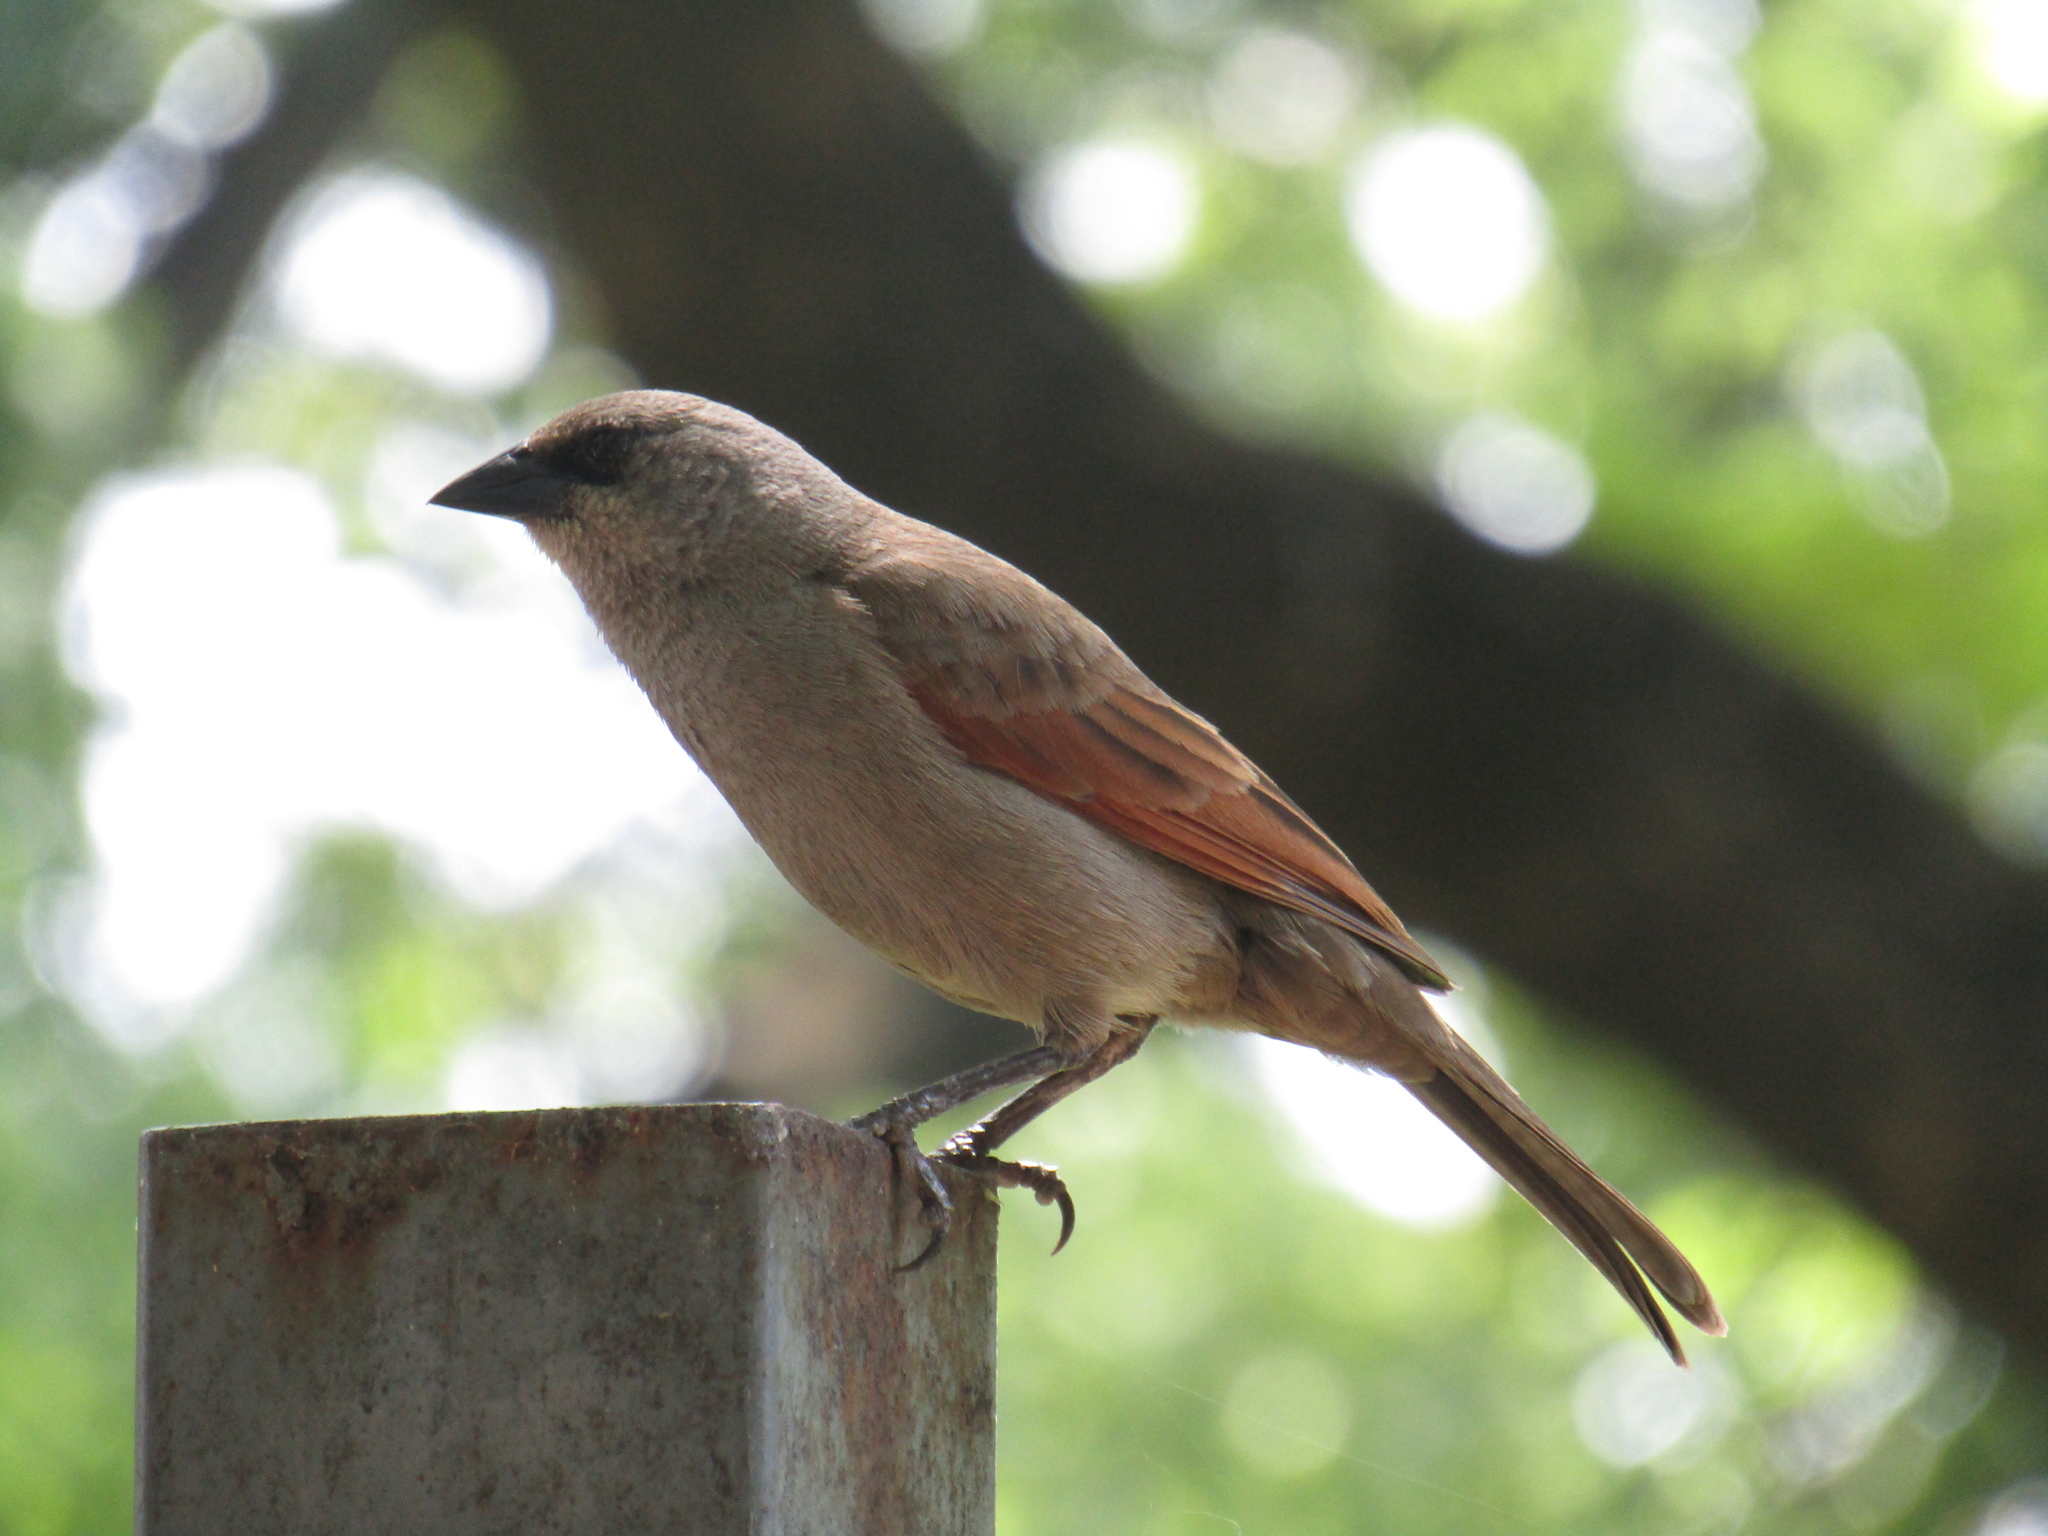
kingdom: Animalia
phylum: Chordata
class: Aves
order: Passeriformes
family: Icteridae
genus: Agelaioides
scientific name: Agelaioides badius
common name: Baywing
